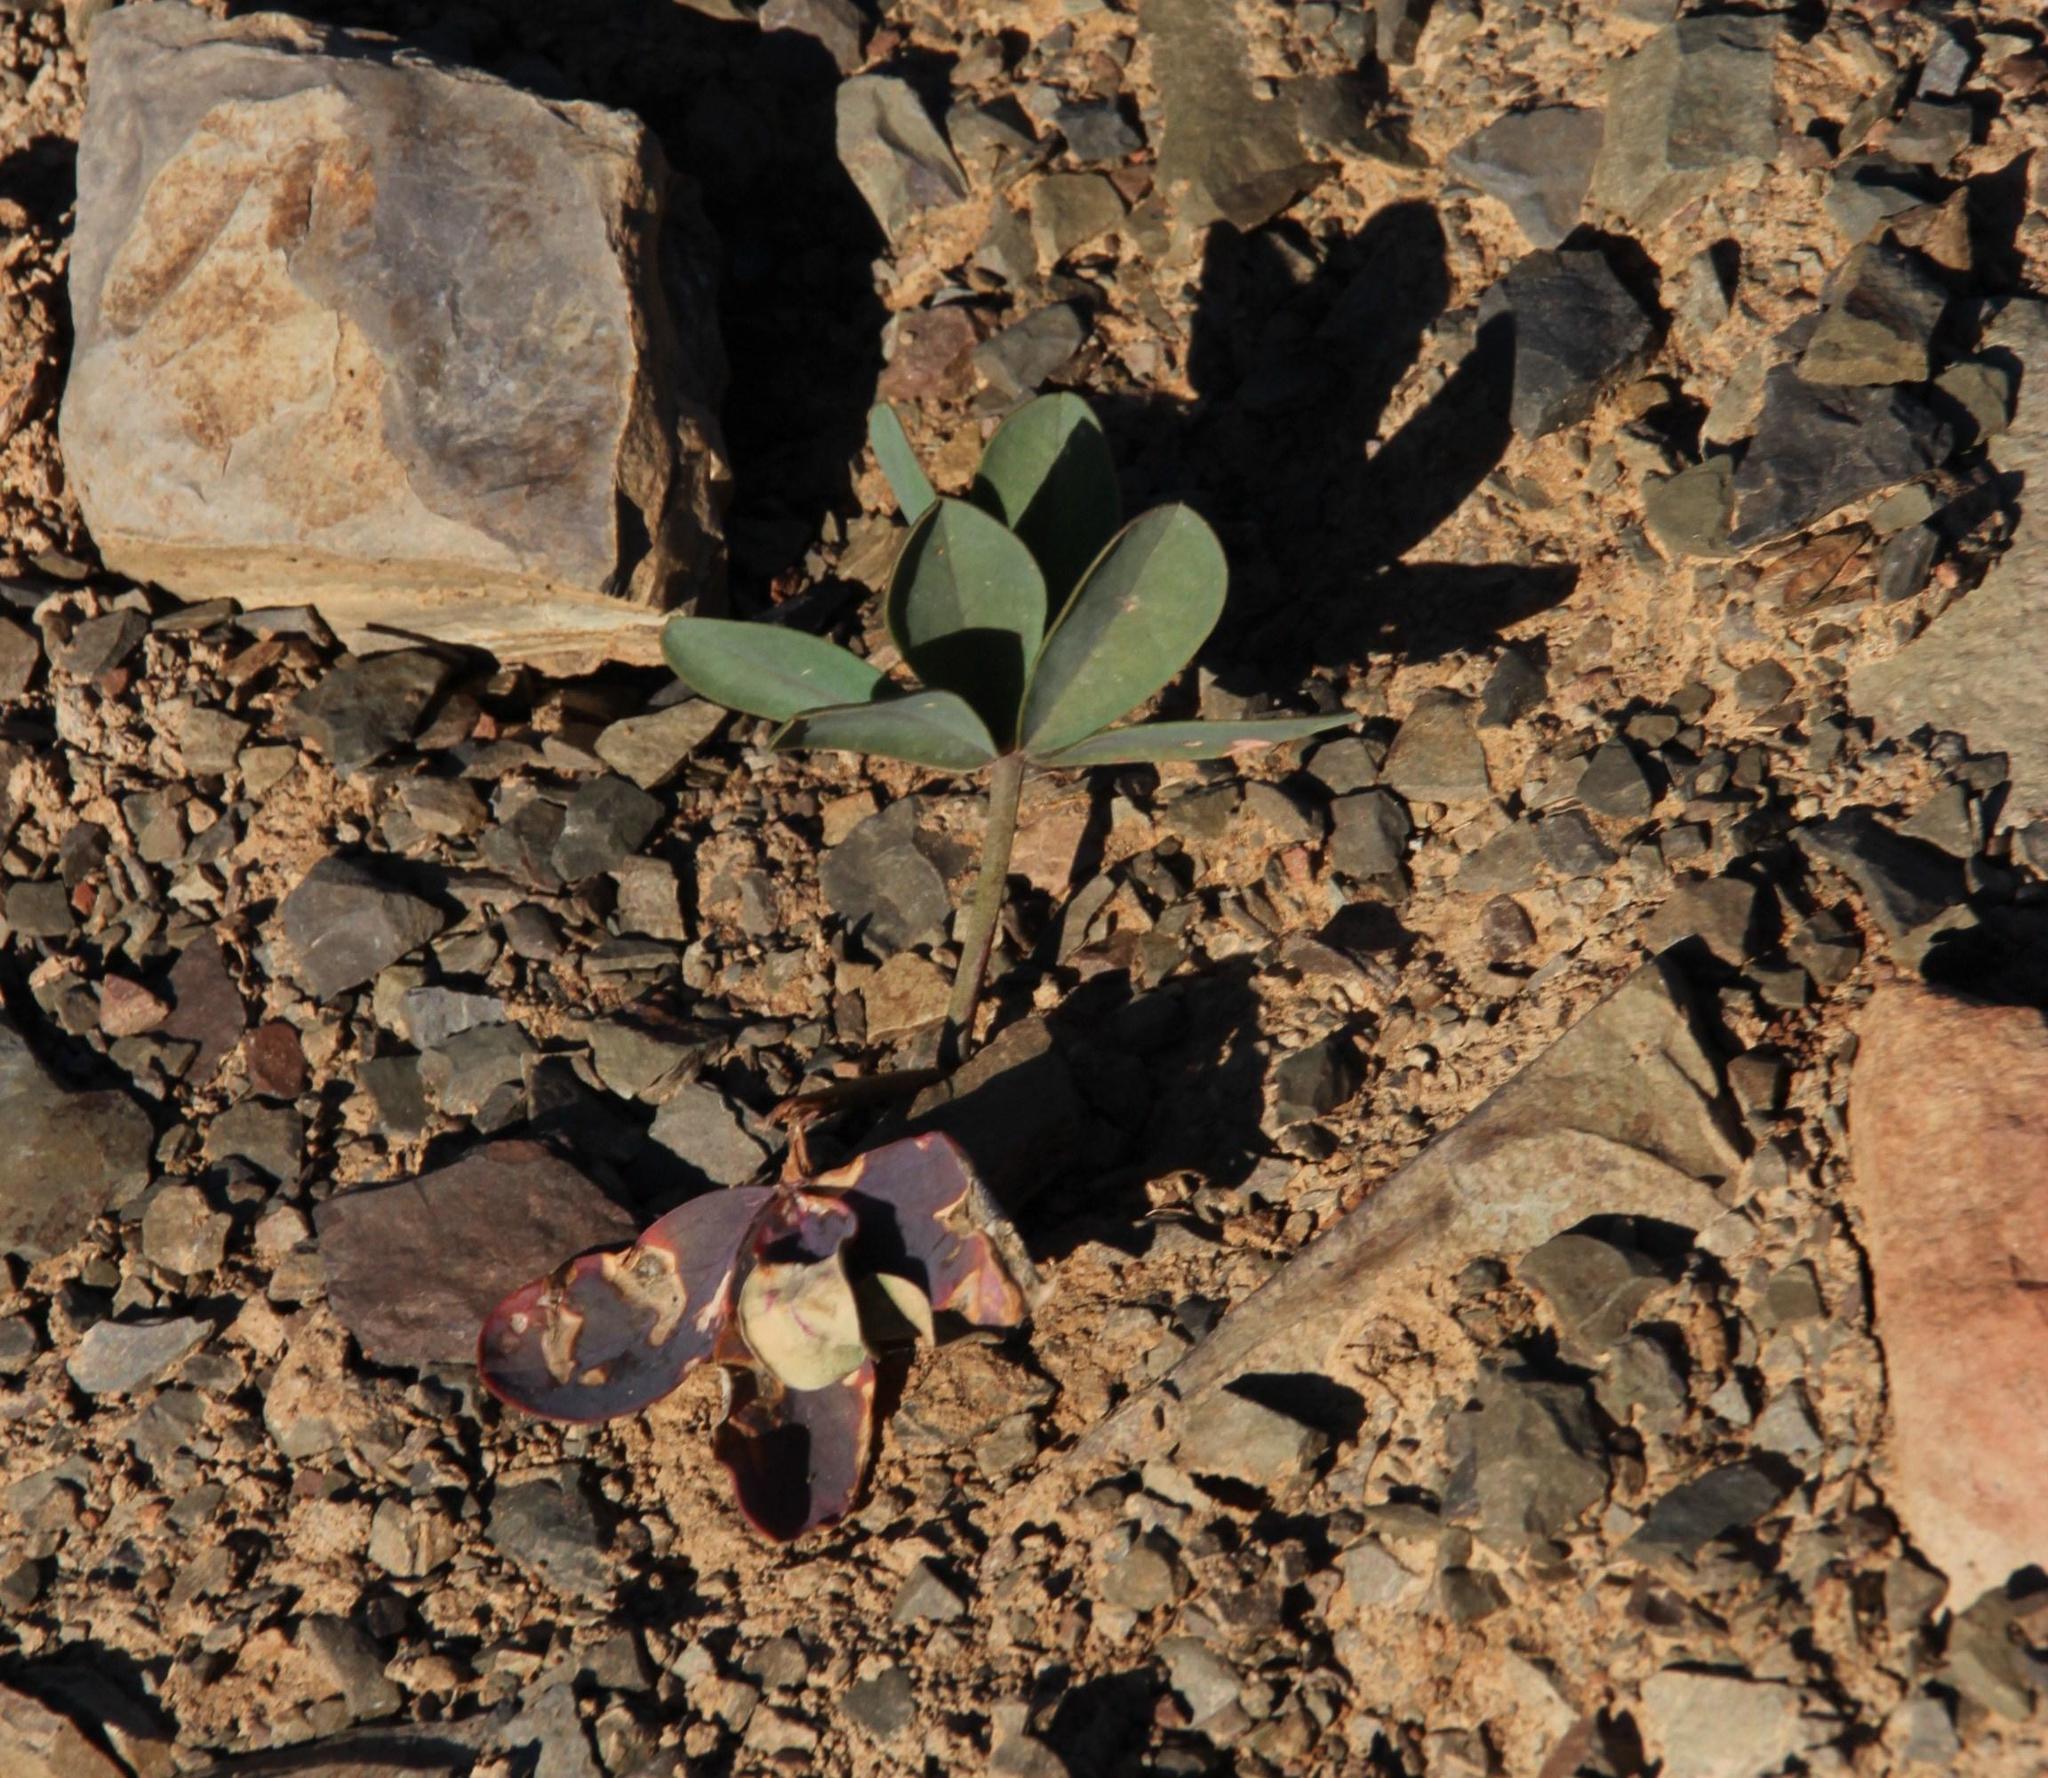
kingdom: Plantae
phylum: Tracheophyta
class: Magnoliopsida
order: Oxalidales
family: Oxalidaceae
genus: Oxalis
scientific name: Oxalis flava
